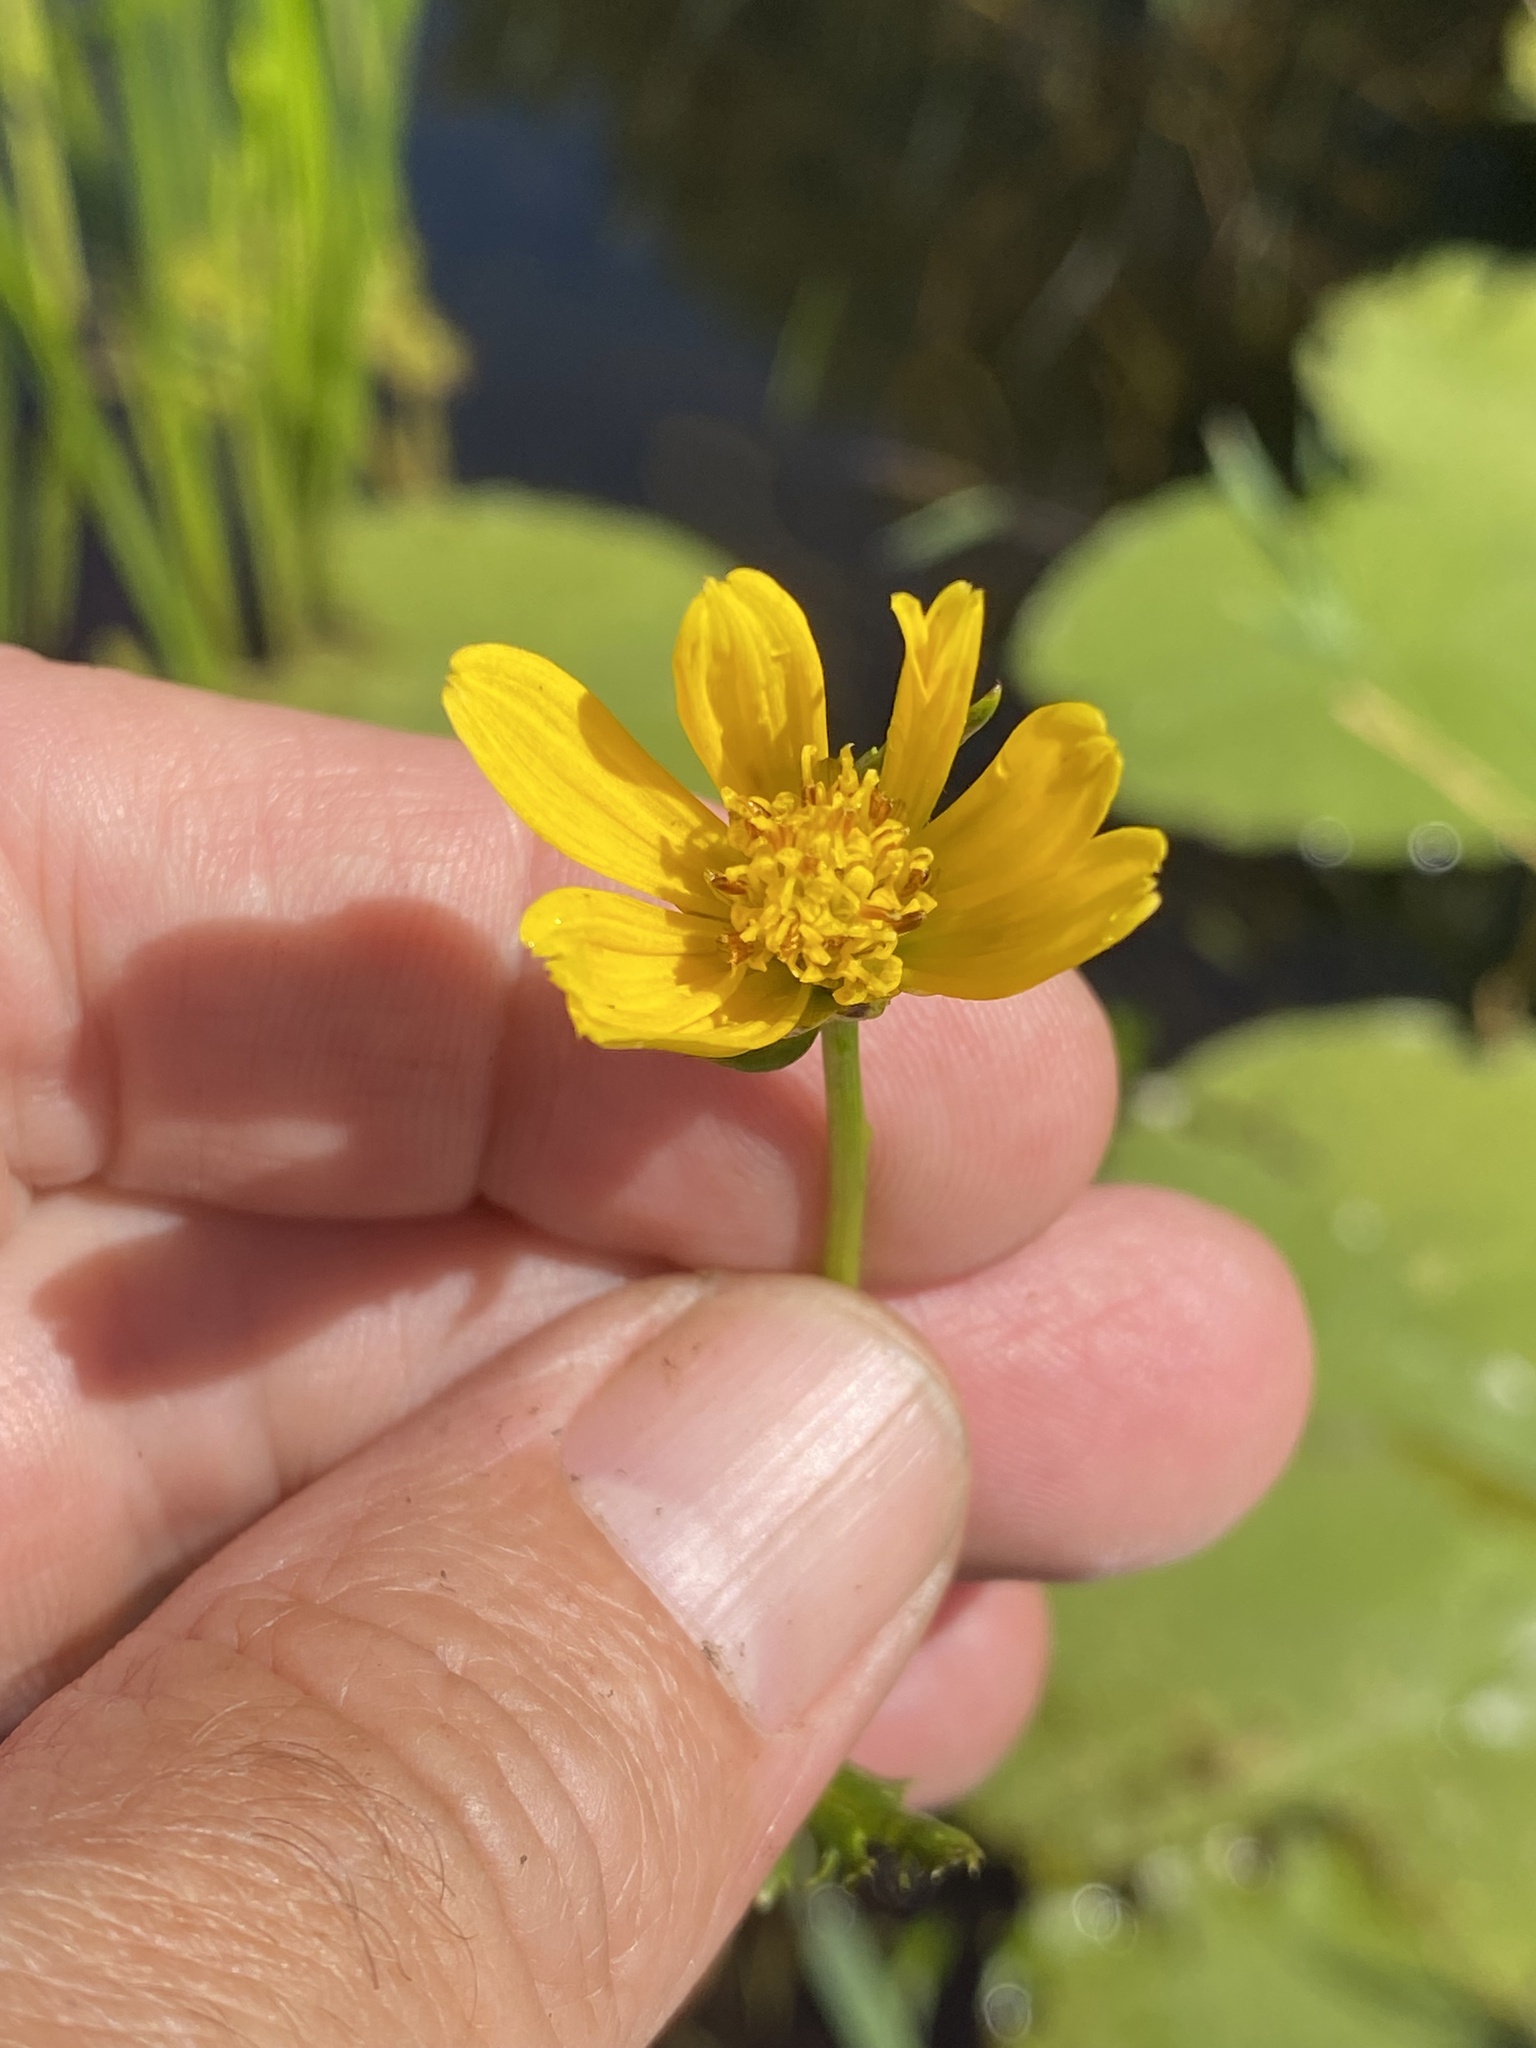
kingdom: Plantae
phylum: Tracheophyta
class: Magnoliopsida
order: Asterales
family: Asteraceae
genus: Bidens
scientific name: Bidens beckii
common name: Beck's beggarticks
